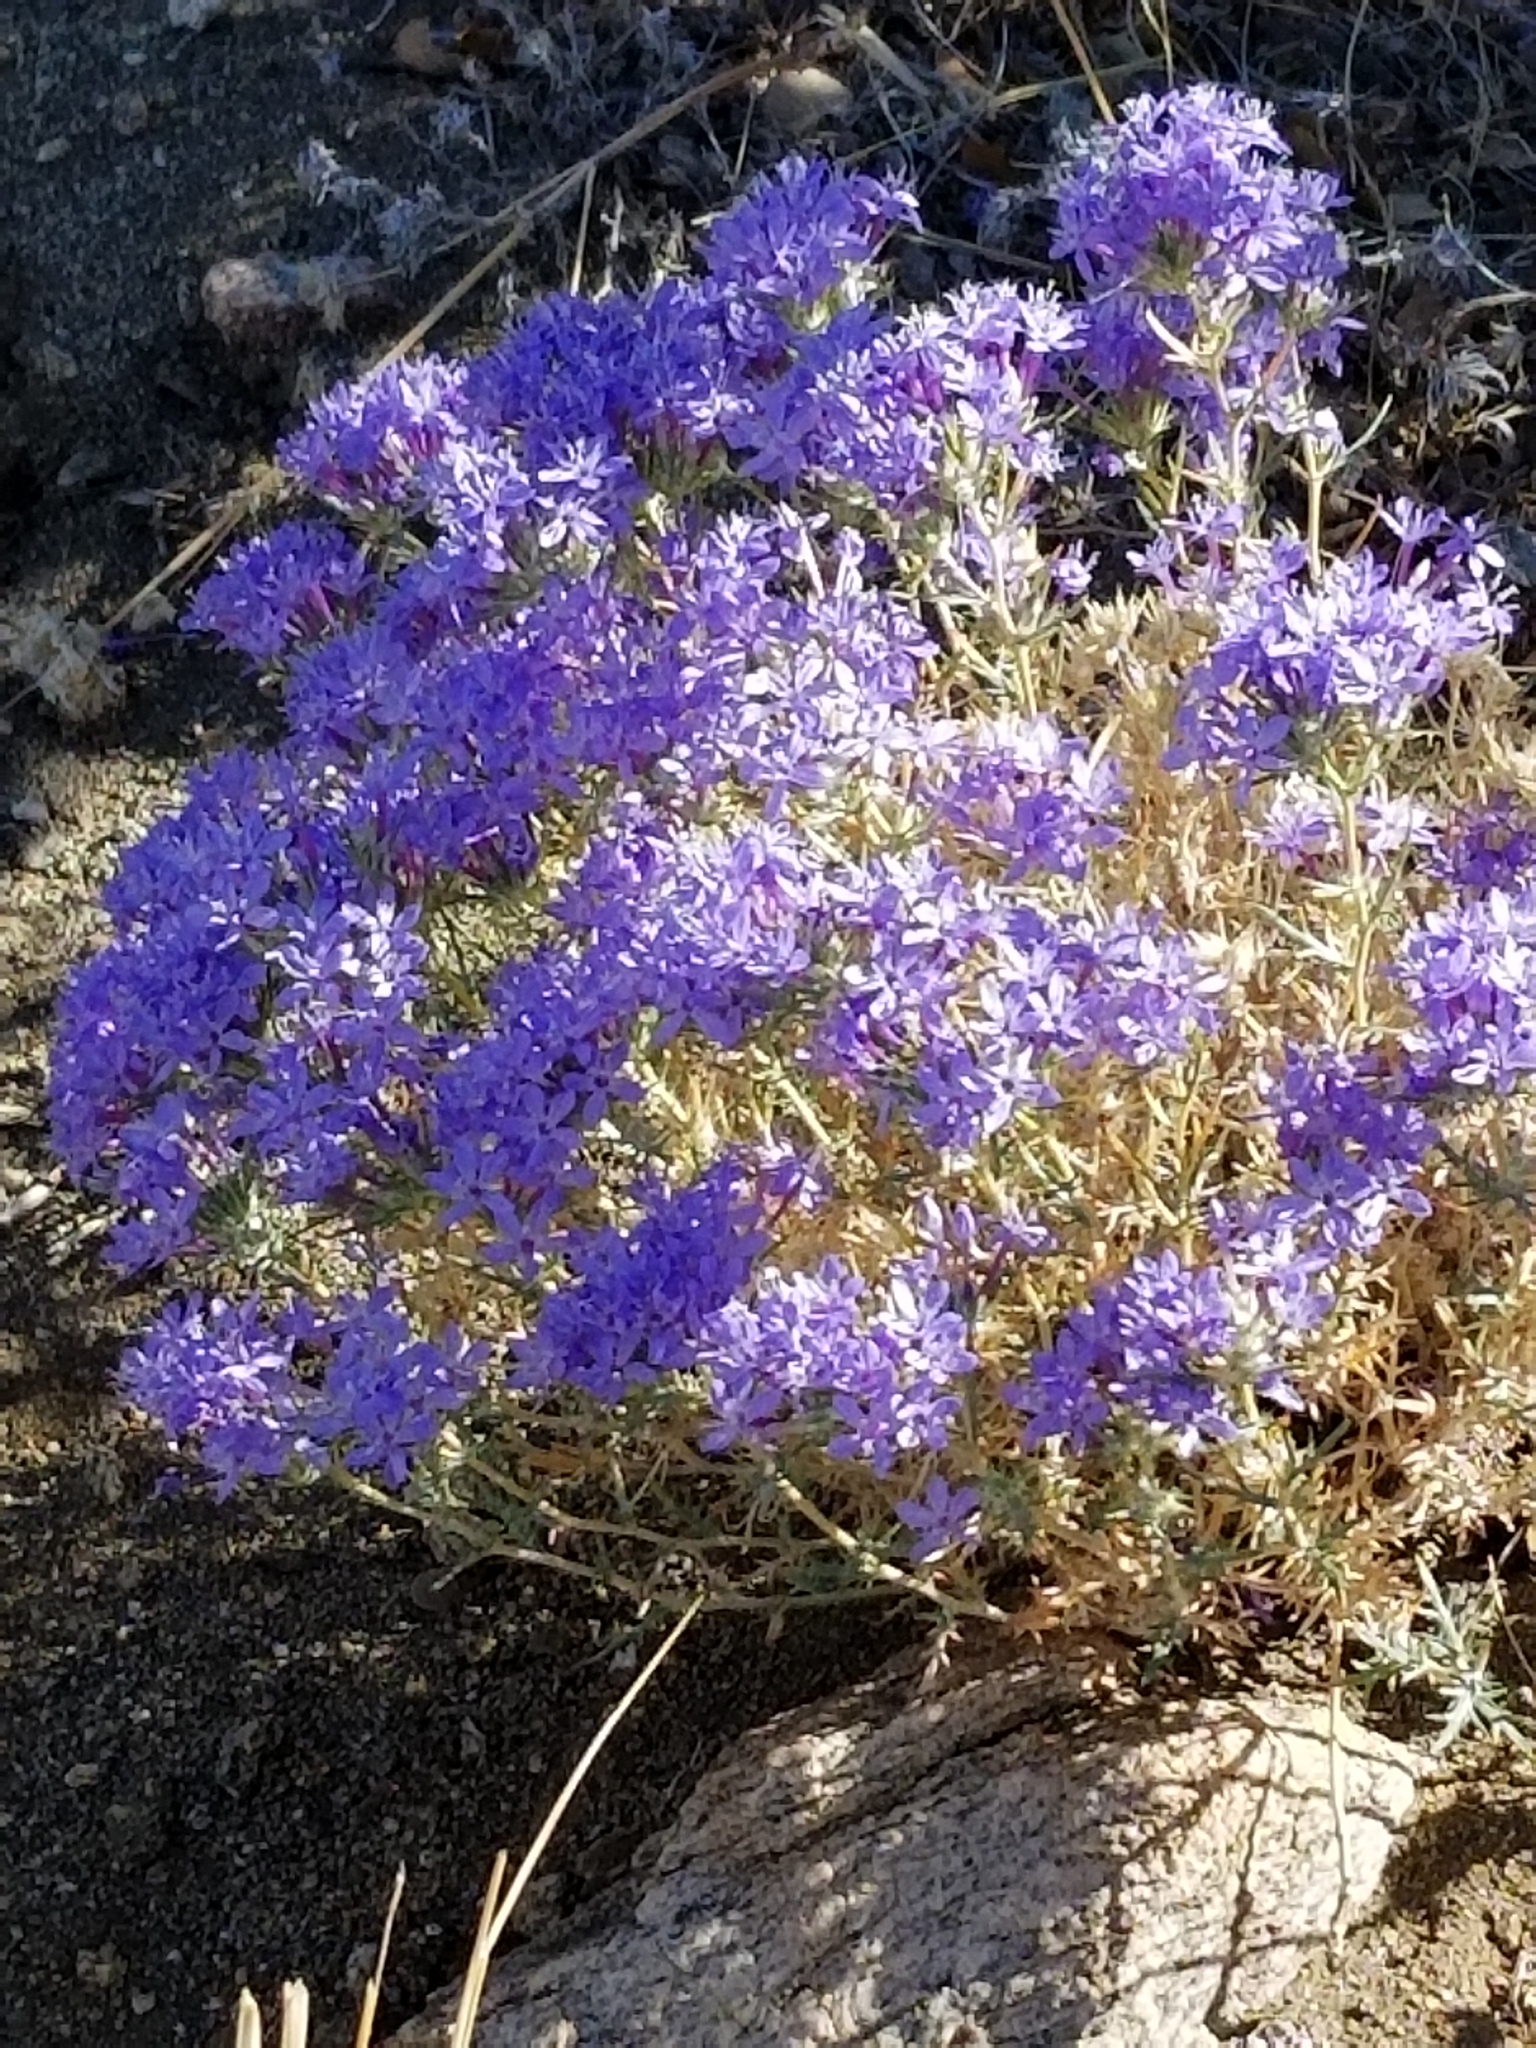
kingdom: Plantae
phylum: Tracheophyta
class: Magnoliopsida
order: Ericales
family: Polemoniaceae
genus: Eriastrum
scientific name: Eriastrum densifolium
